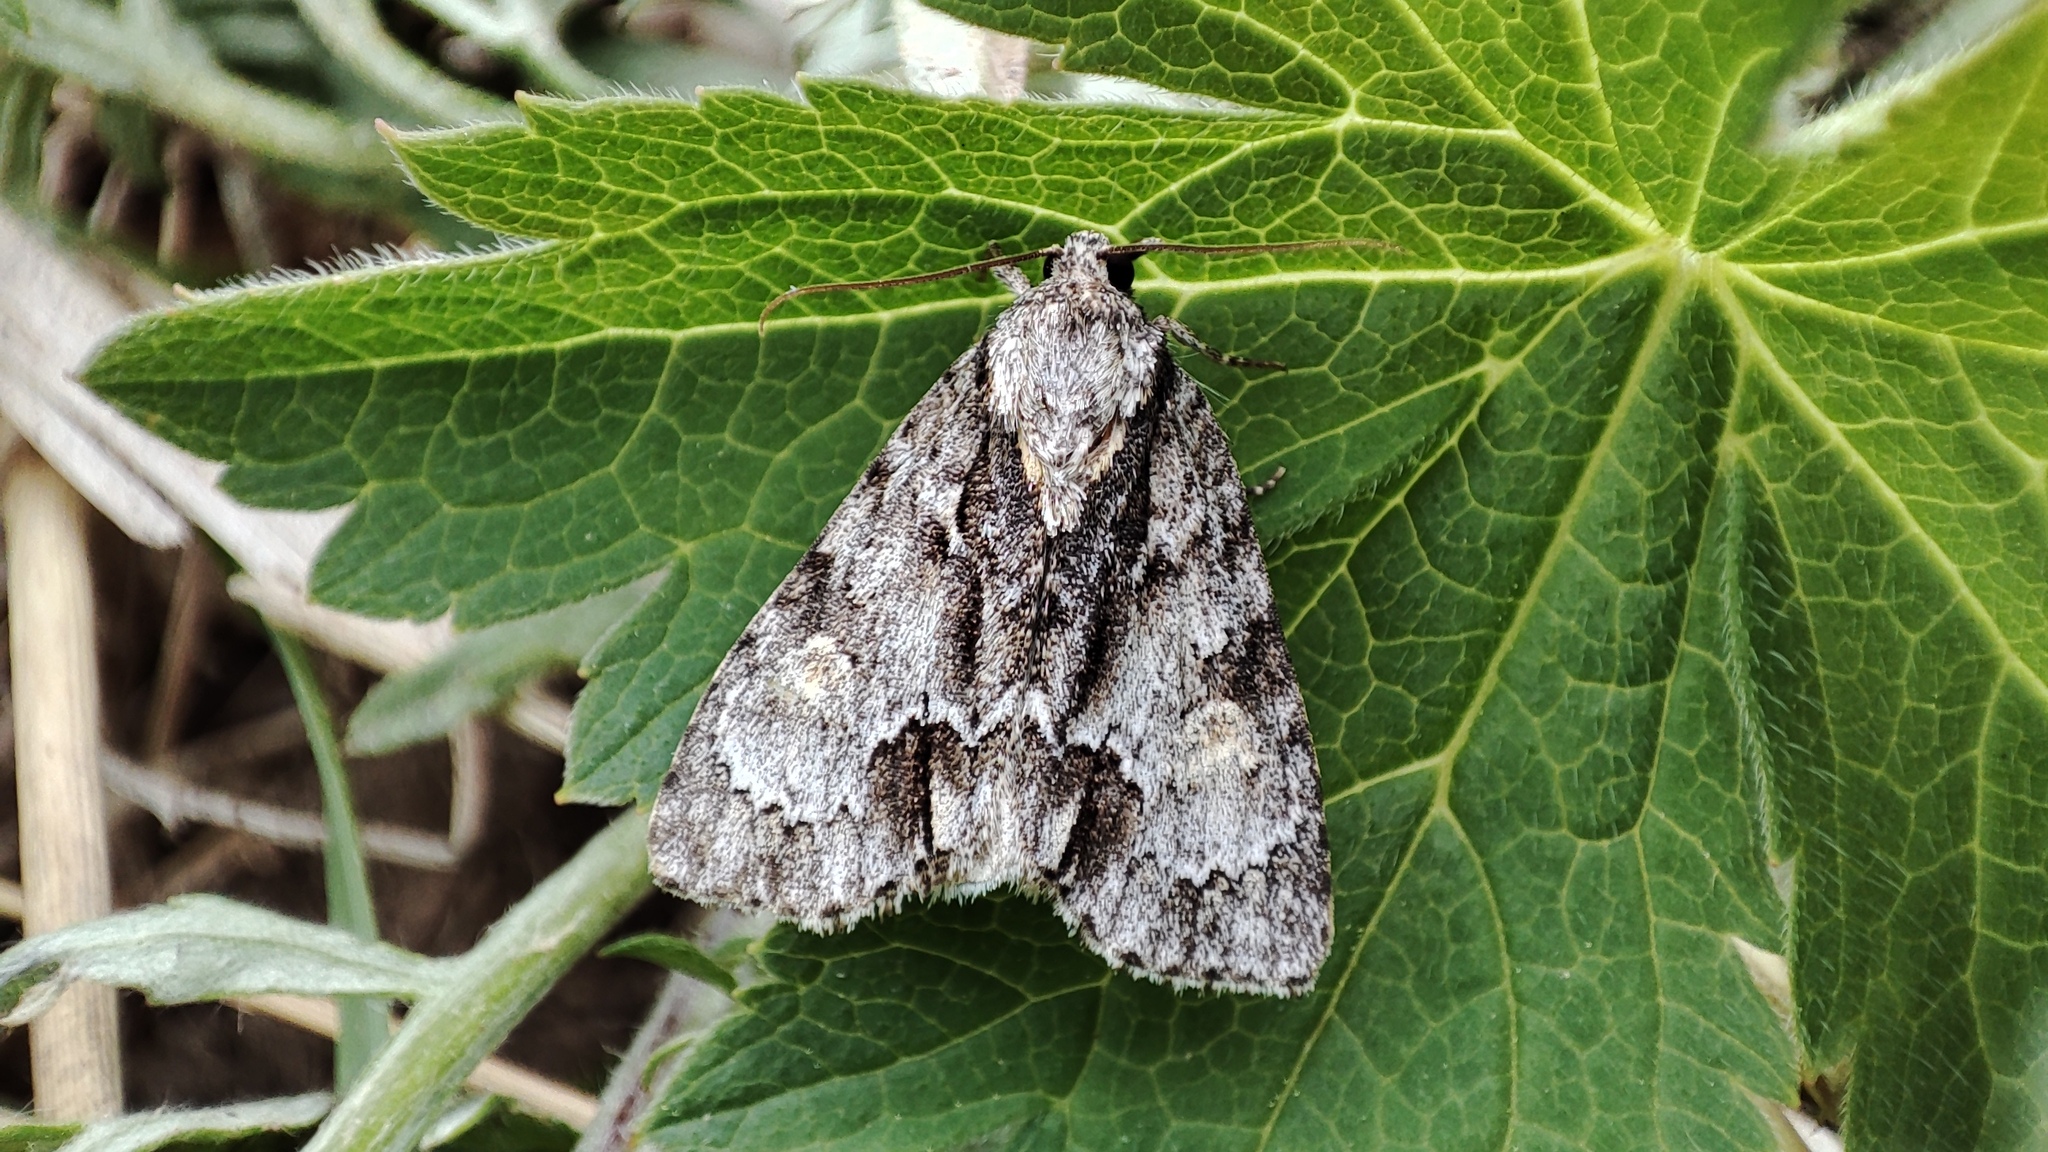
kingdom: Animalia
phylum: Arthropoda
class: Insecta
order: Lepidoptera
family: Noctuidae
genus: Acronicta
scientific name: Acronicta strigosa
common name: Marsh dagger
